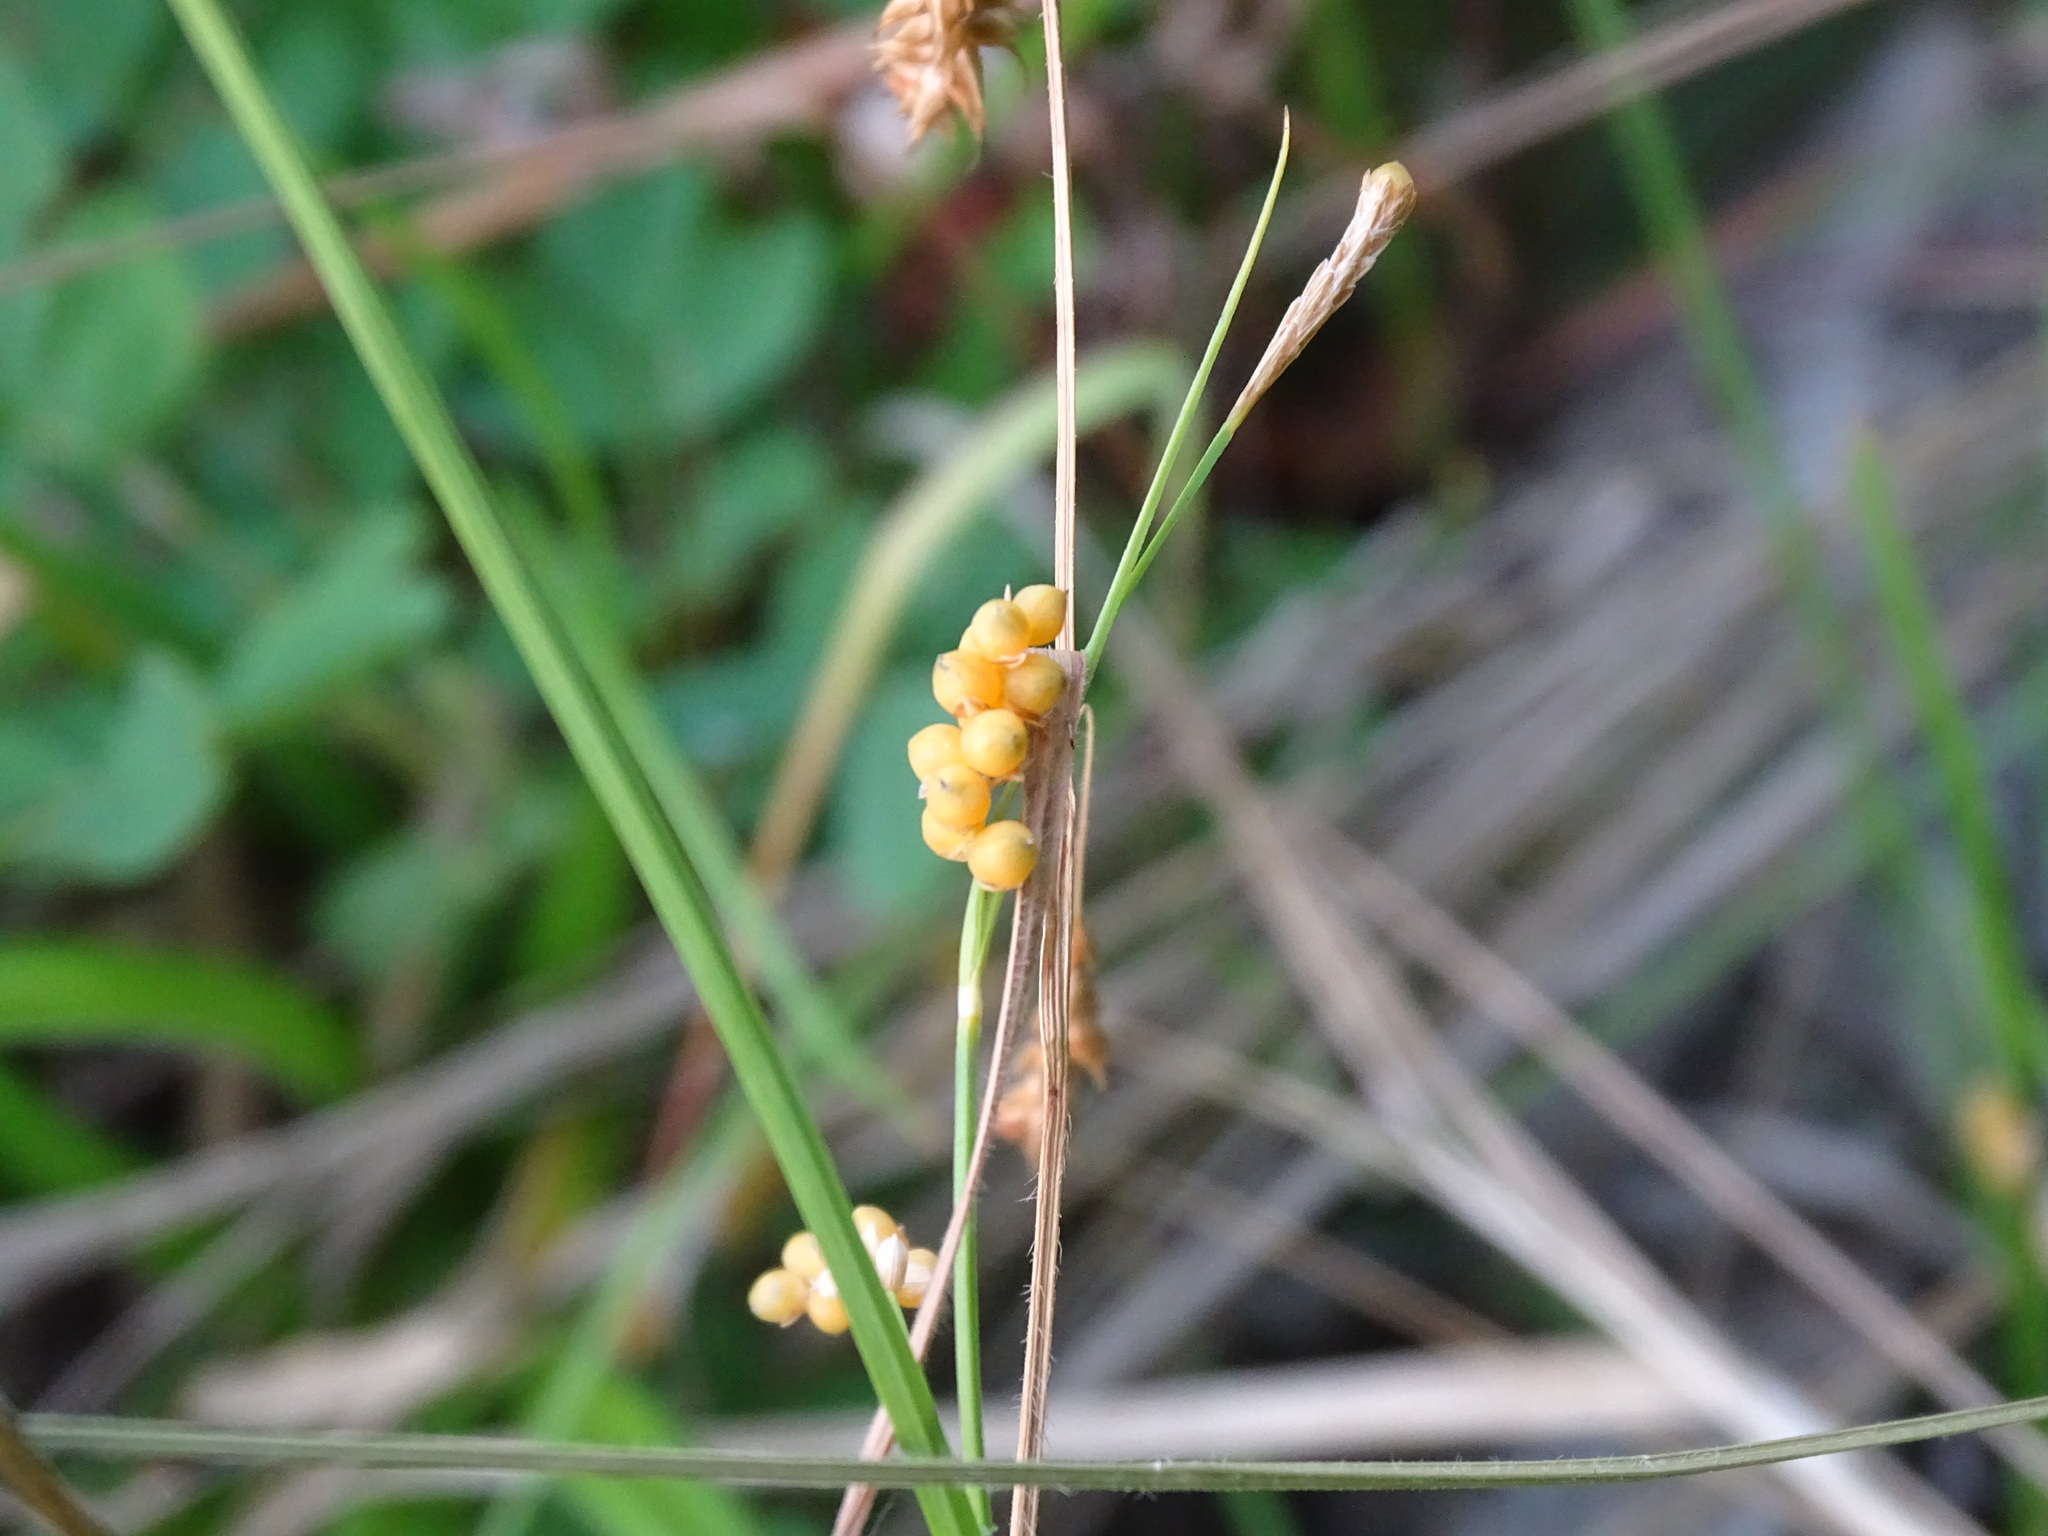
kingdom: Plantae
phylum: Tracheophyta
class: Liliopsida
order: Poales
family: Cyperaceae
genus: Carex
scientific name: Carex aurea
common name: Golden sedge
